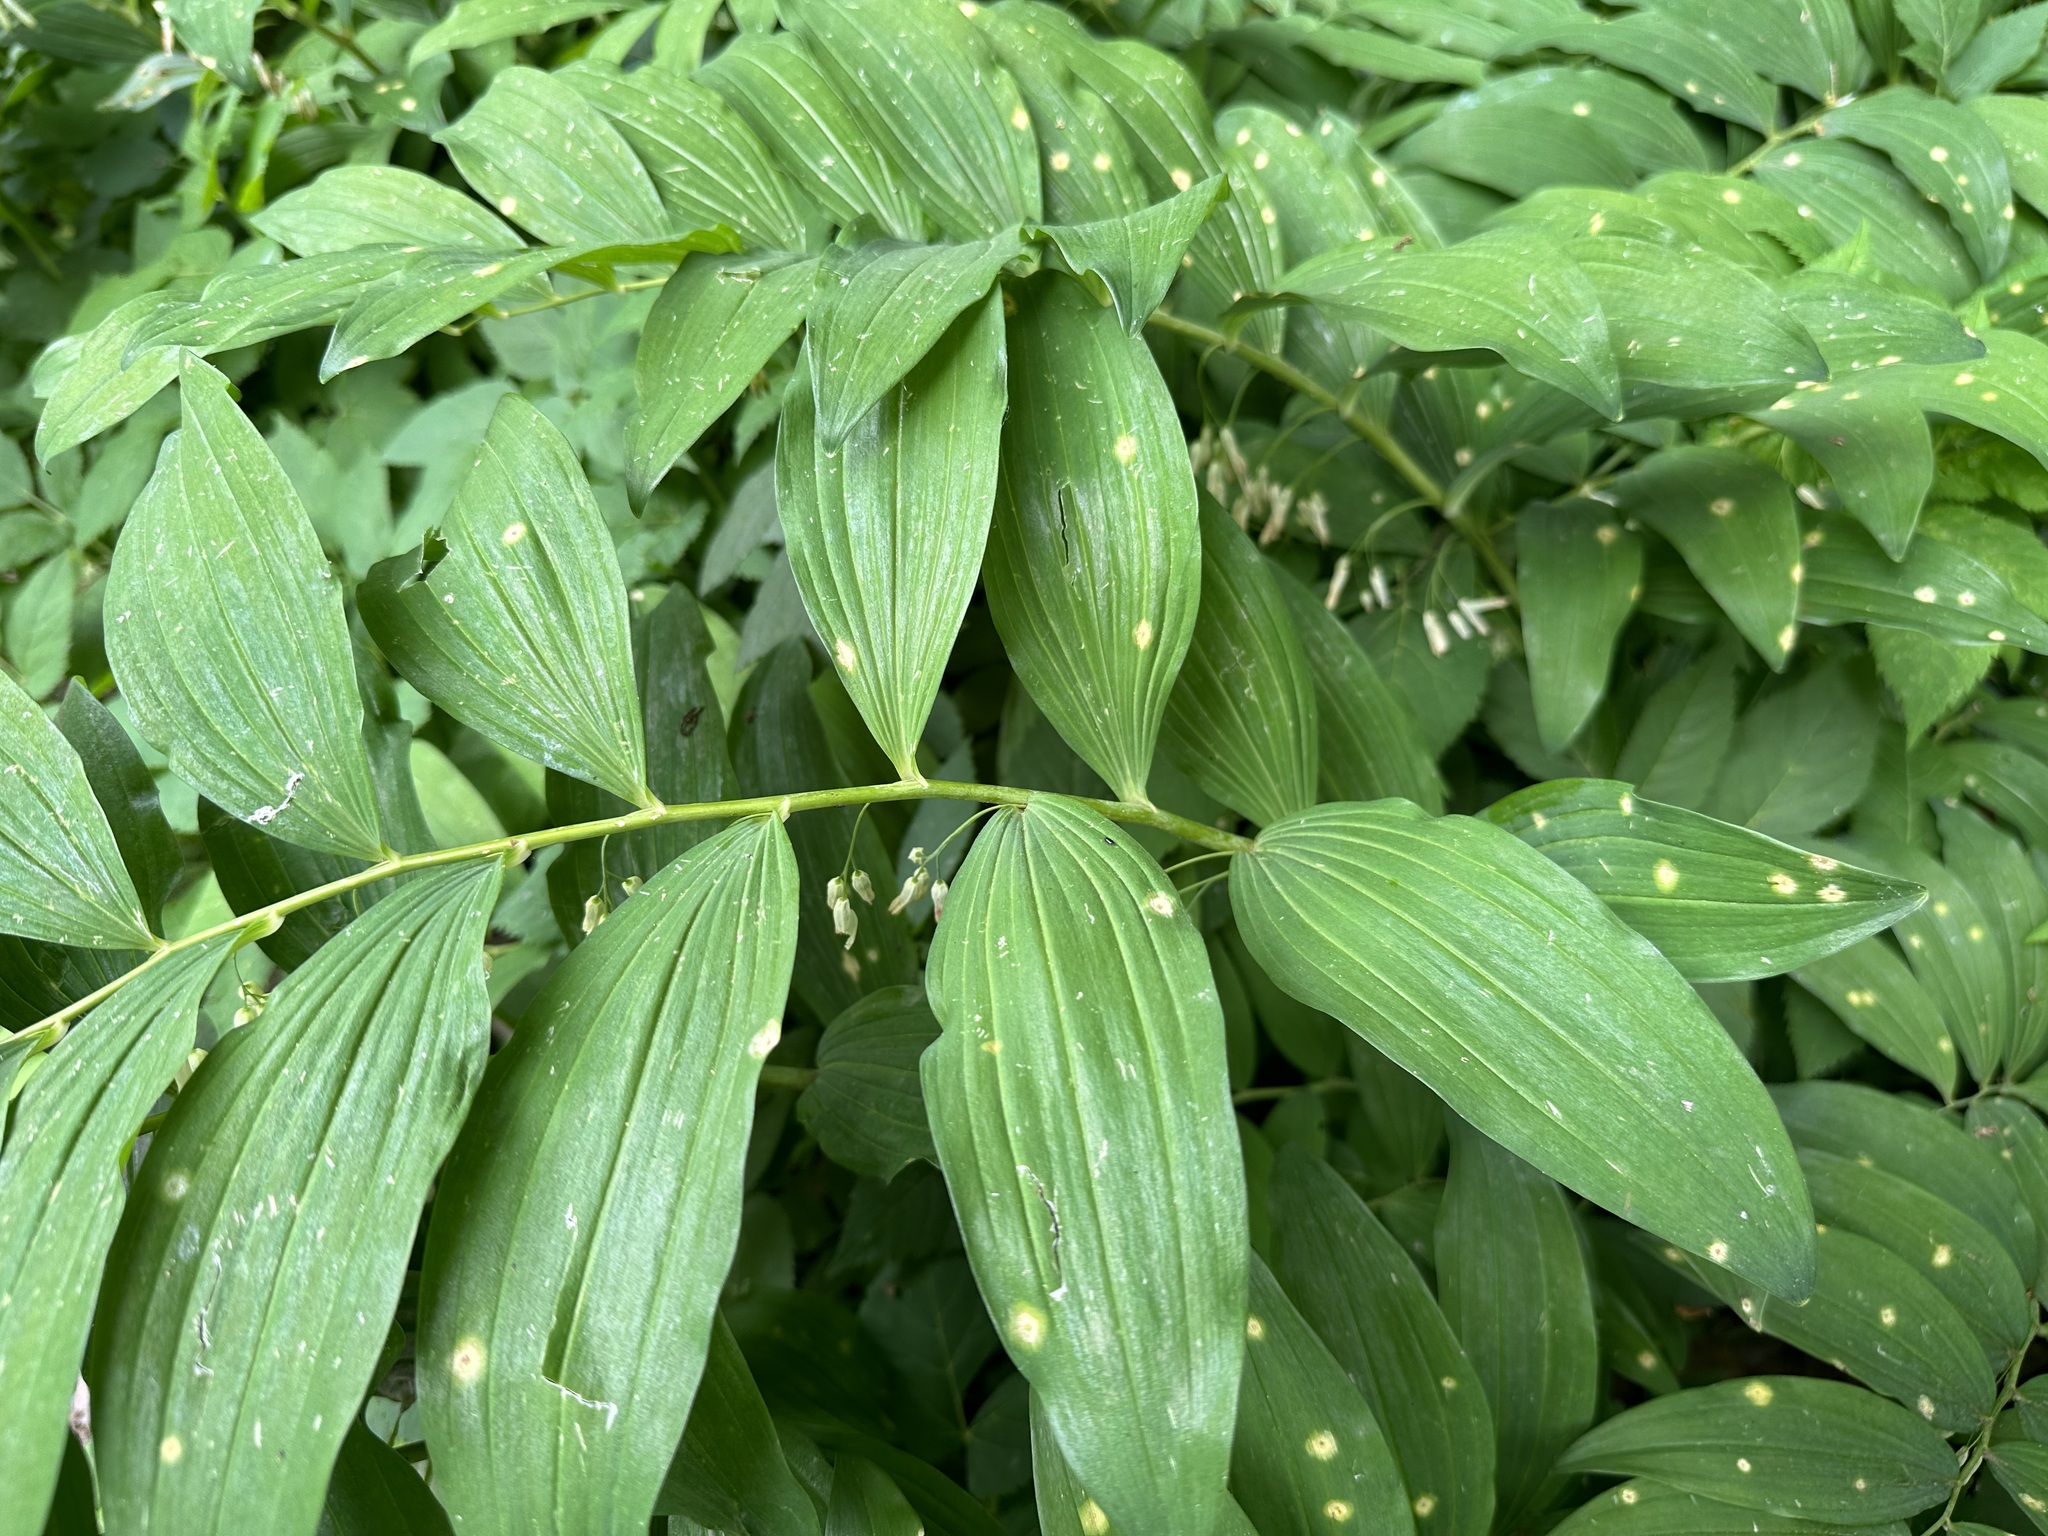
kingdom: Plantae
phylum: Tracheophyta
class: Liliopsida
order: Asparagales
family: Asparagaceae
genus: Polygonatum
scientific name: Polygonatum multiflorum
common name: Solomon's-seal
